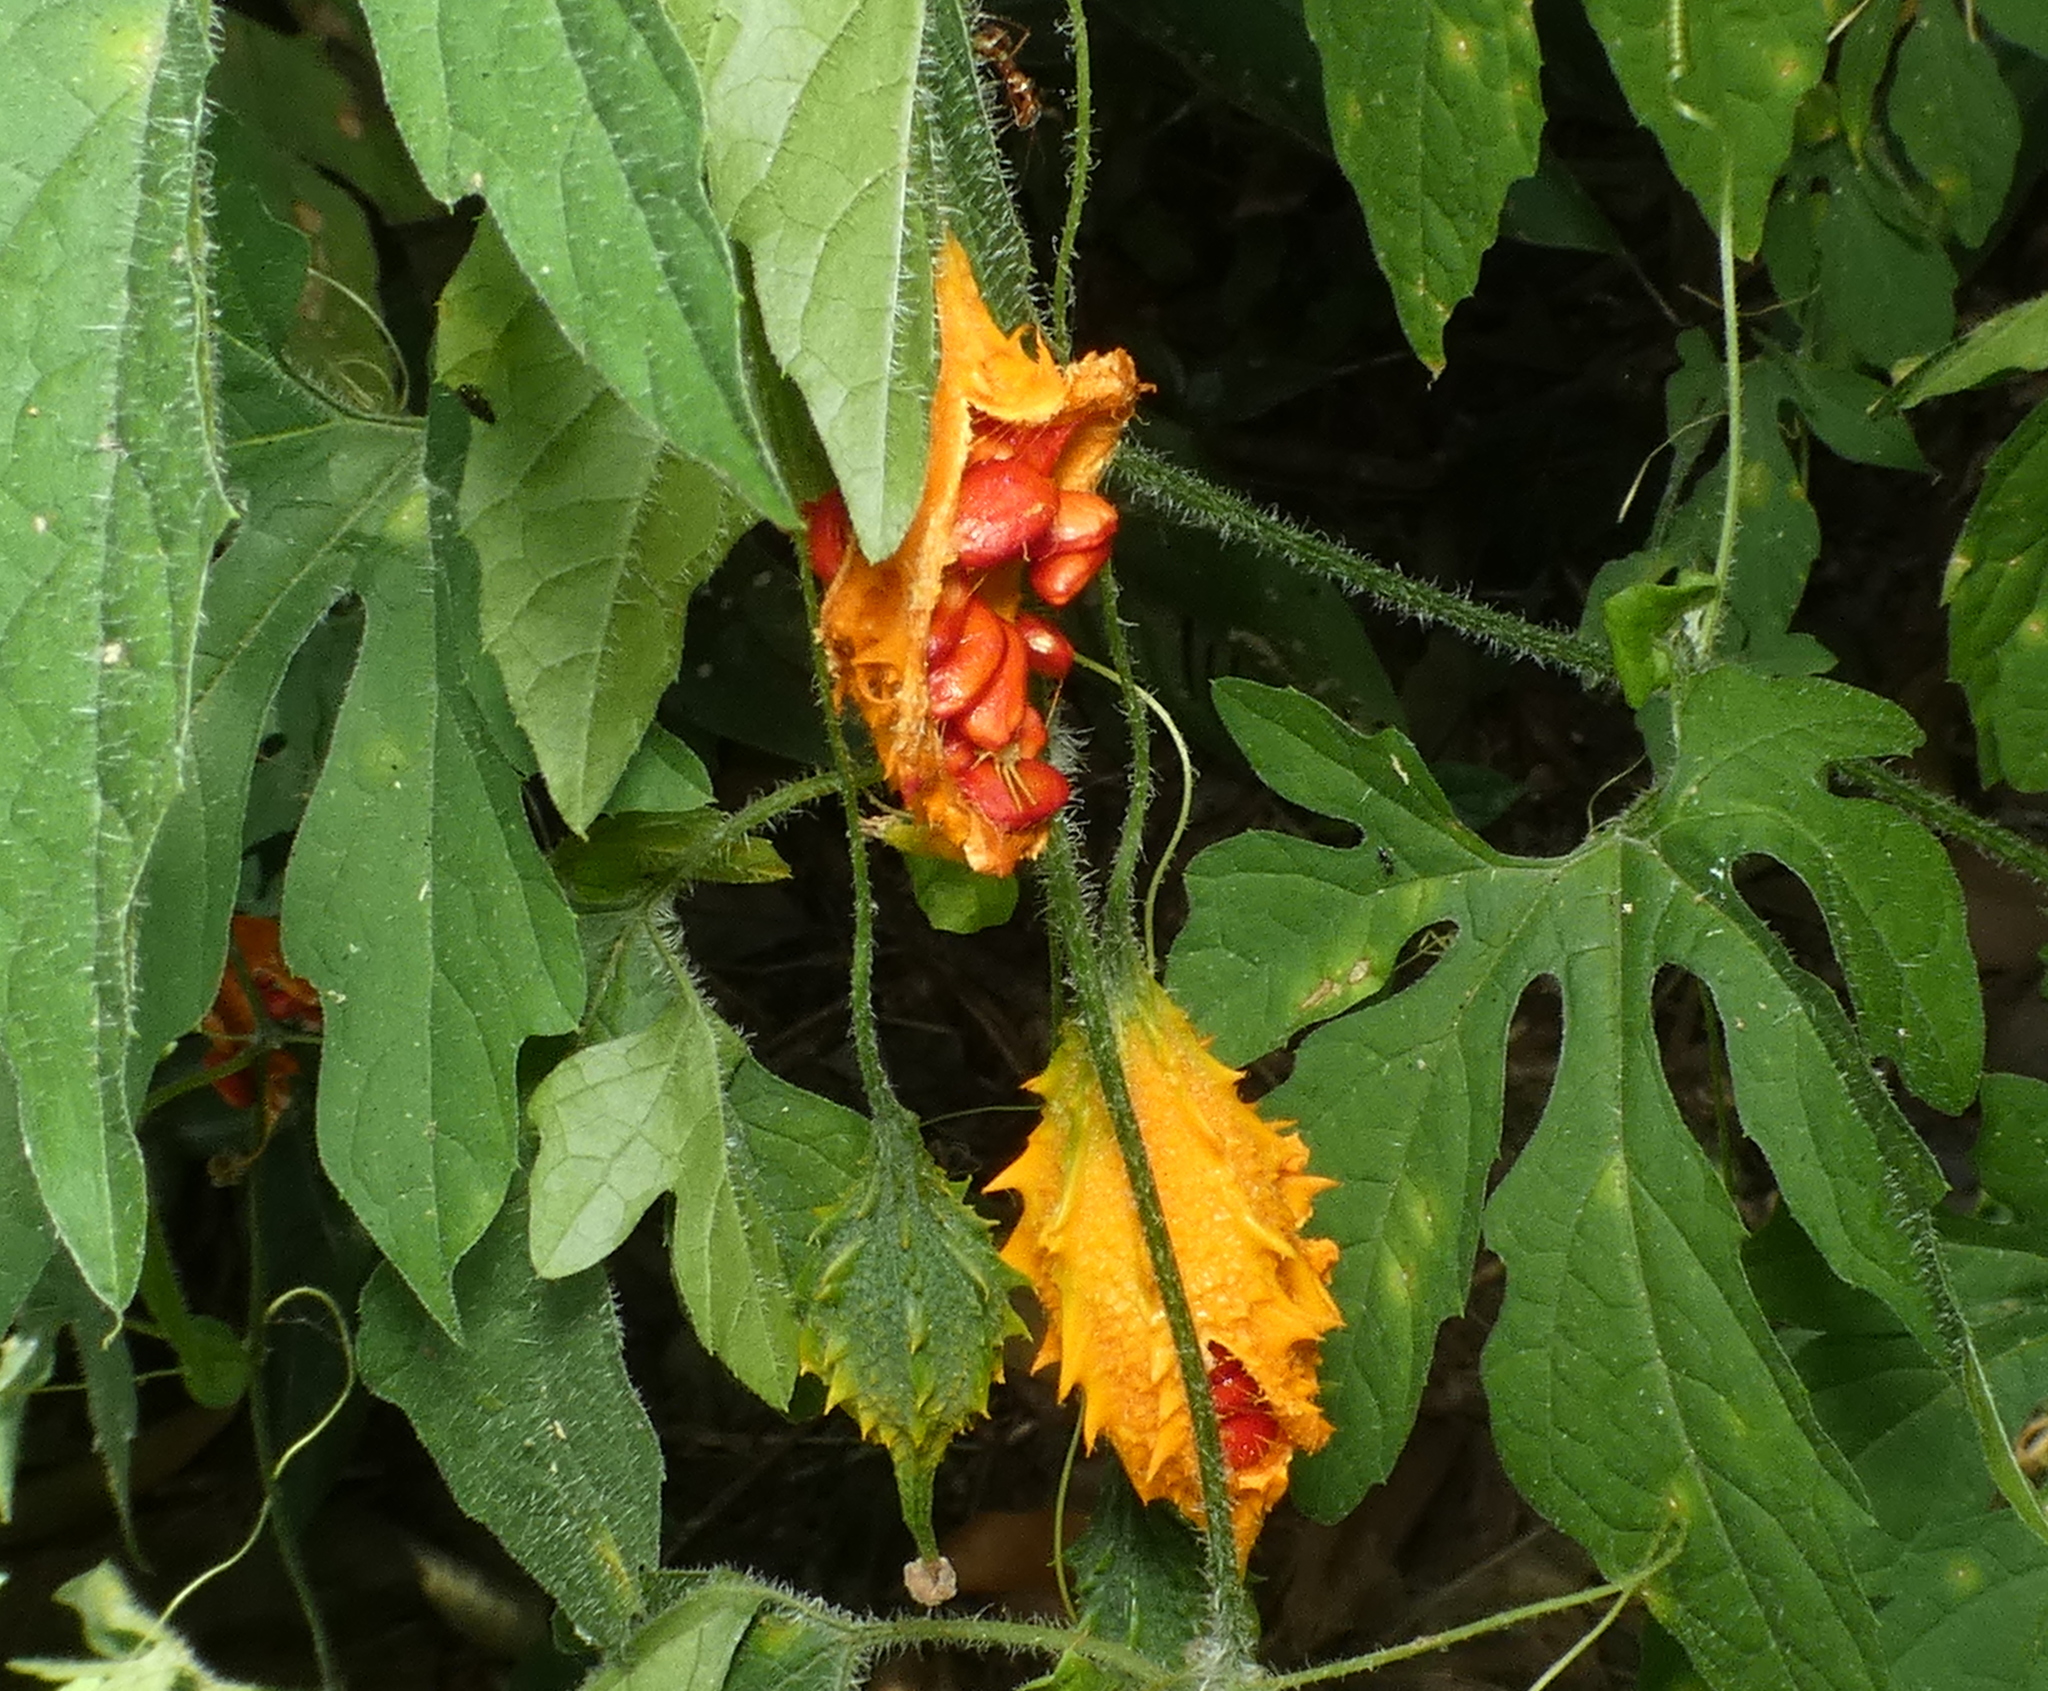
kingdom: Plantae
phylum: Tracheophyta
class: Magnoliopsida
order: Cucurbitales
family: Cucurbitaceae
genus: Momordica
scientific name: Momordica charantia
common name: Balsampear
